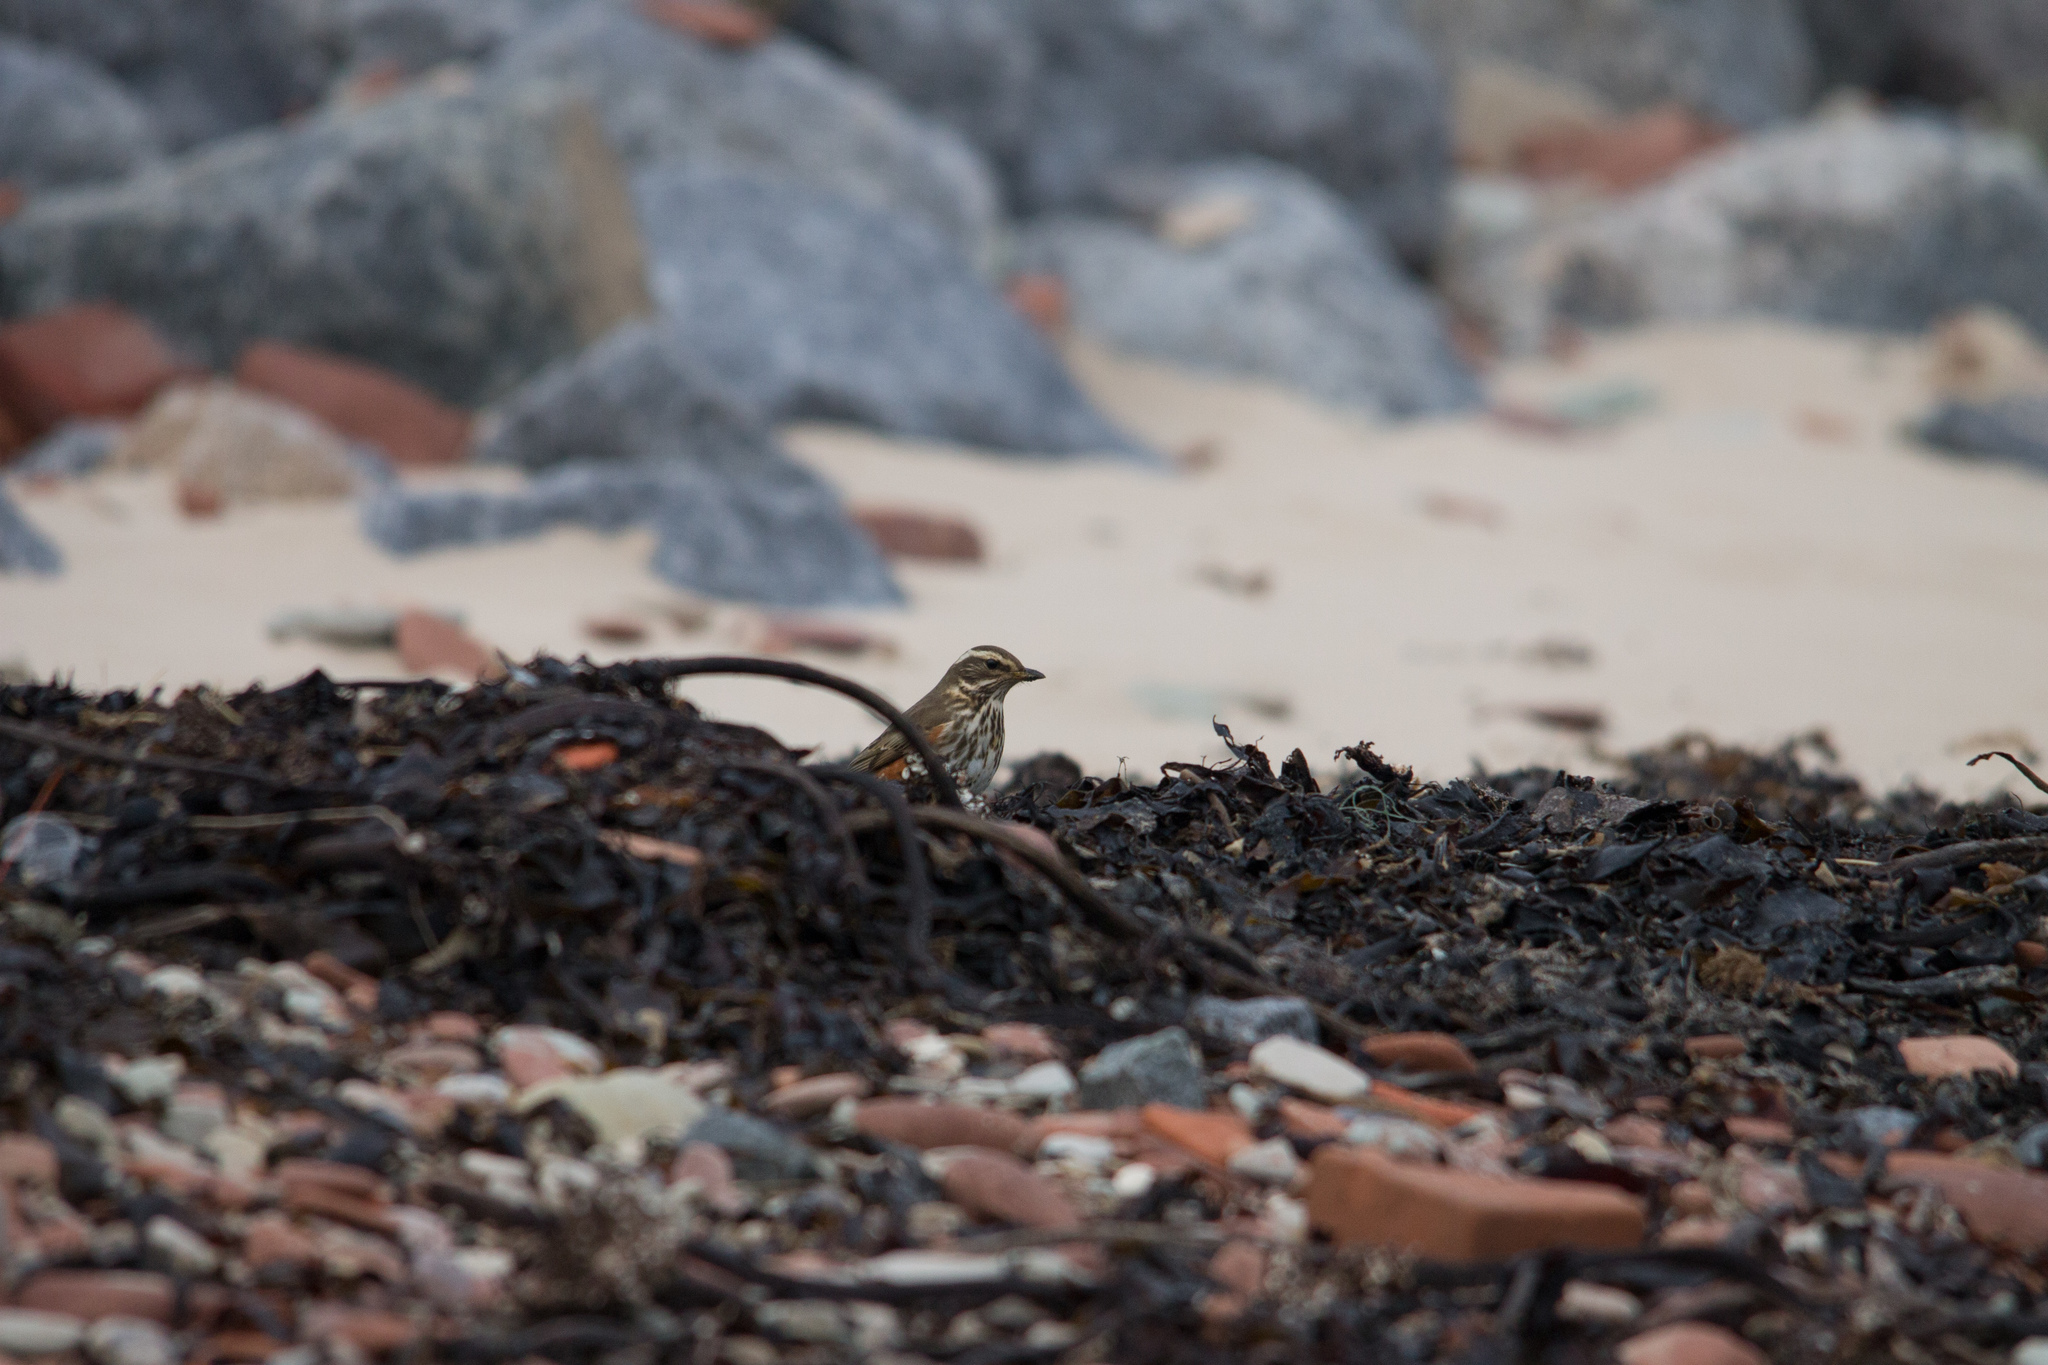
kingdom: Animalia
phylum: Chordata
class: Aves
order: Passeriformes
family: Turdidae
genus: Turdus
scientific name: Turdus iliacus
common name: Redwing
